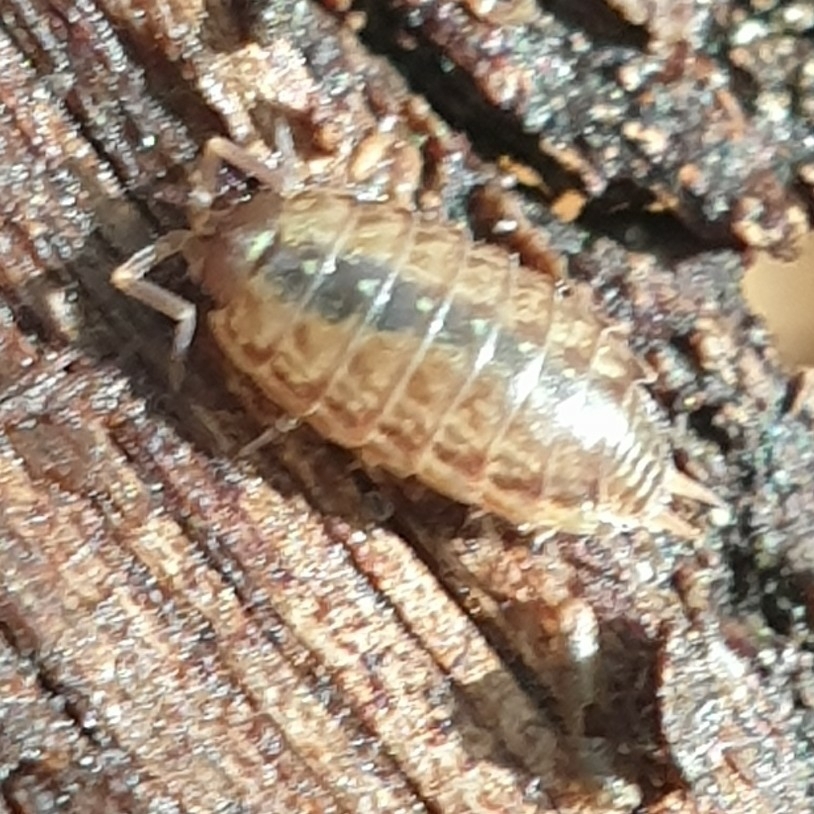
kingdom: Animalia
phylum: Arthropoda
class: Malacostraca
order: Isopoda
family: Philosciidae
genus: Philoscia
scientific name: Philoscia muscorum
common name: Common striped woodlouse
